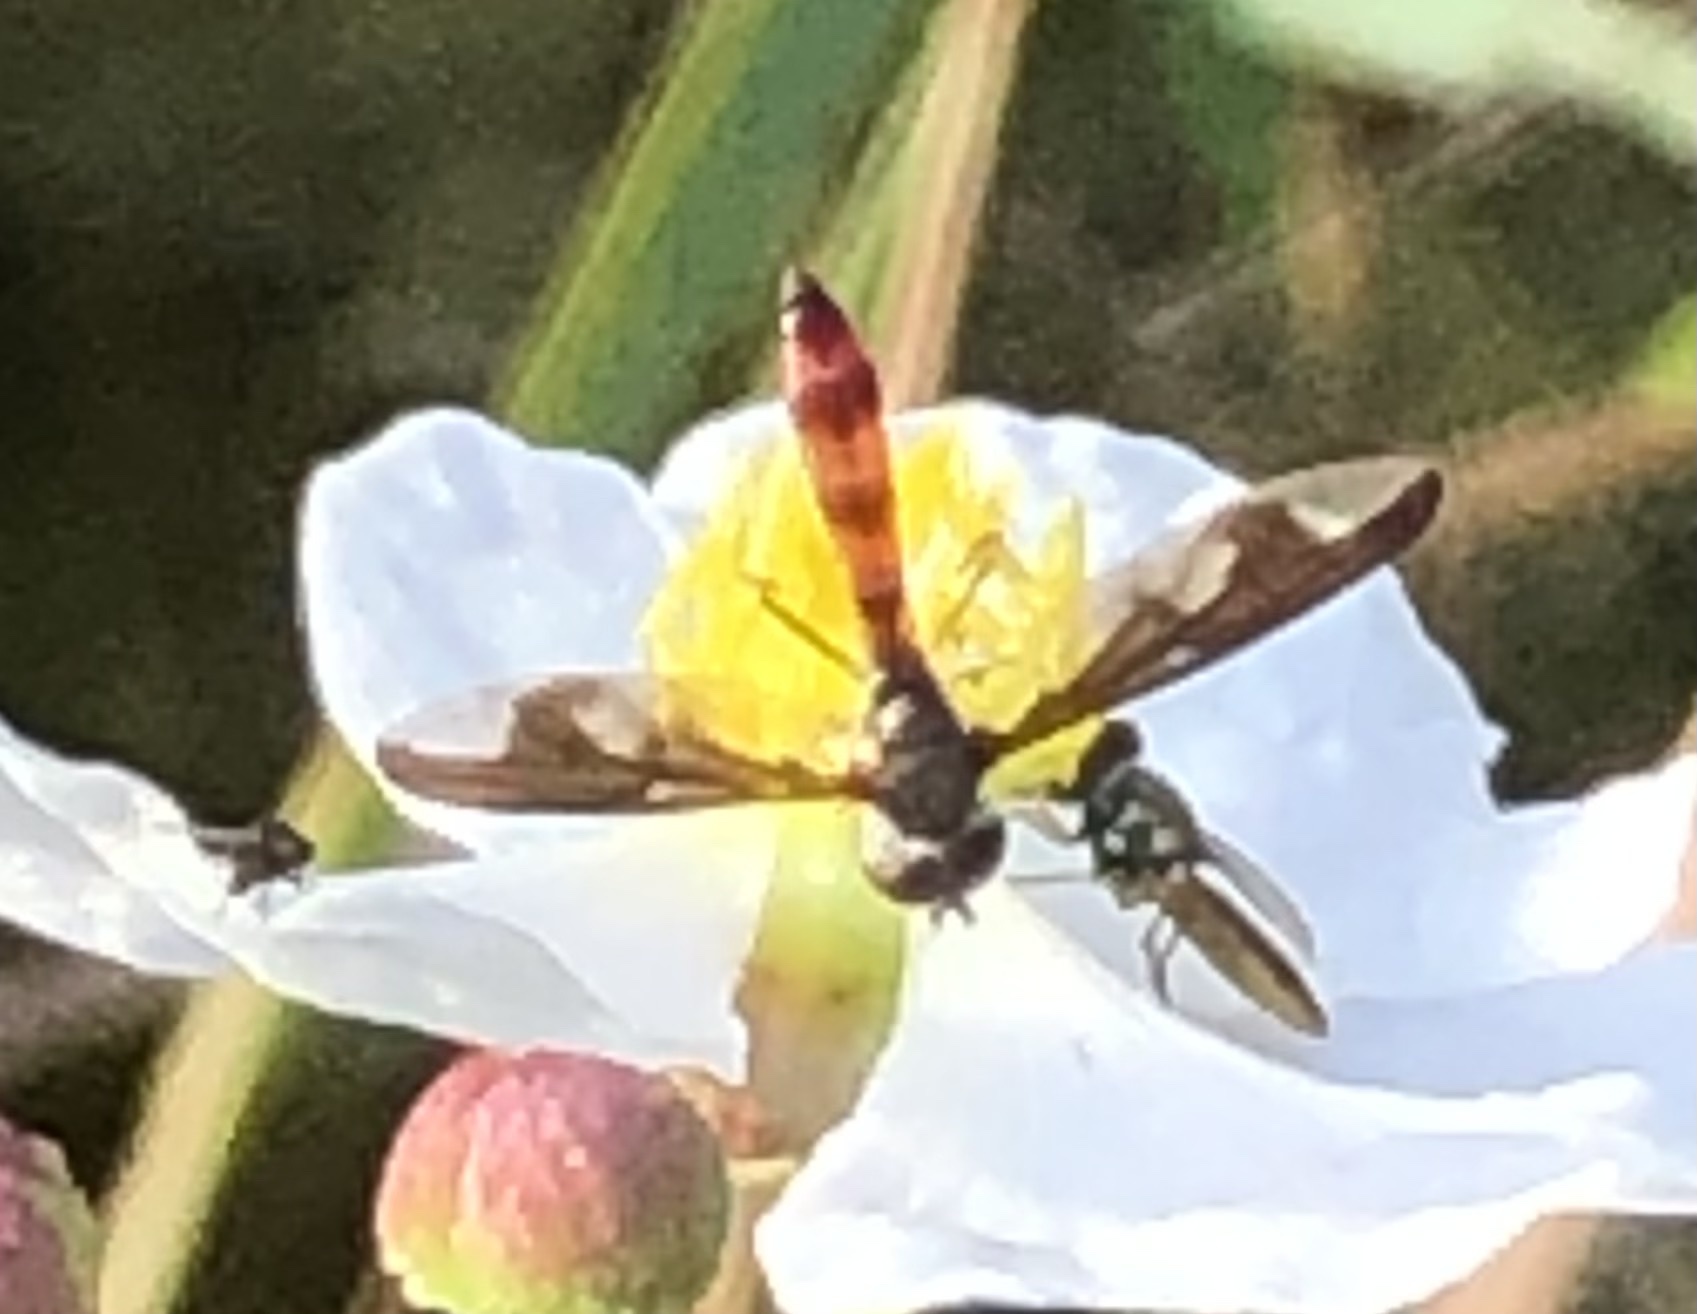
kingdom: Animalia
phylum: Arthropoda
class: Insecta
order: Diptera
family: Syrphidae
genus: Ocyptamus
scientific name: Ocyptamus fuscipennis
